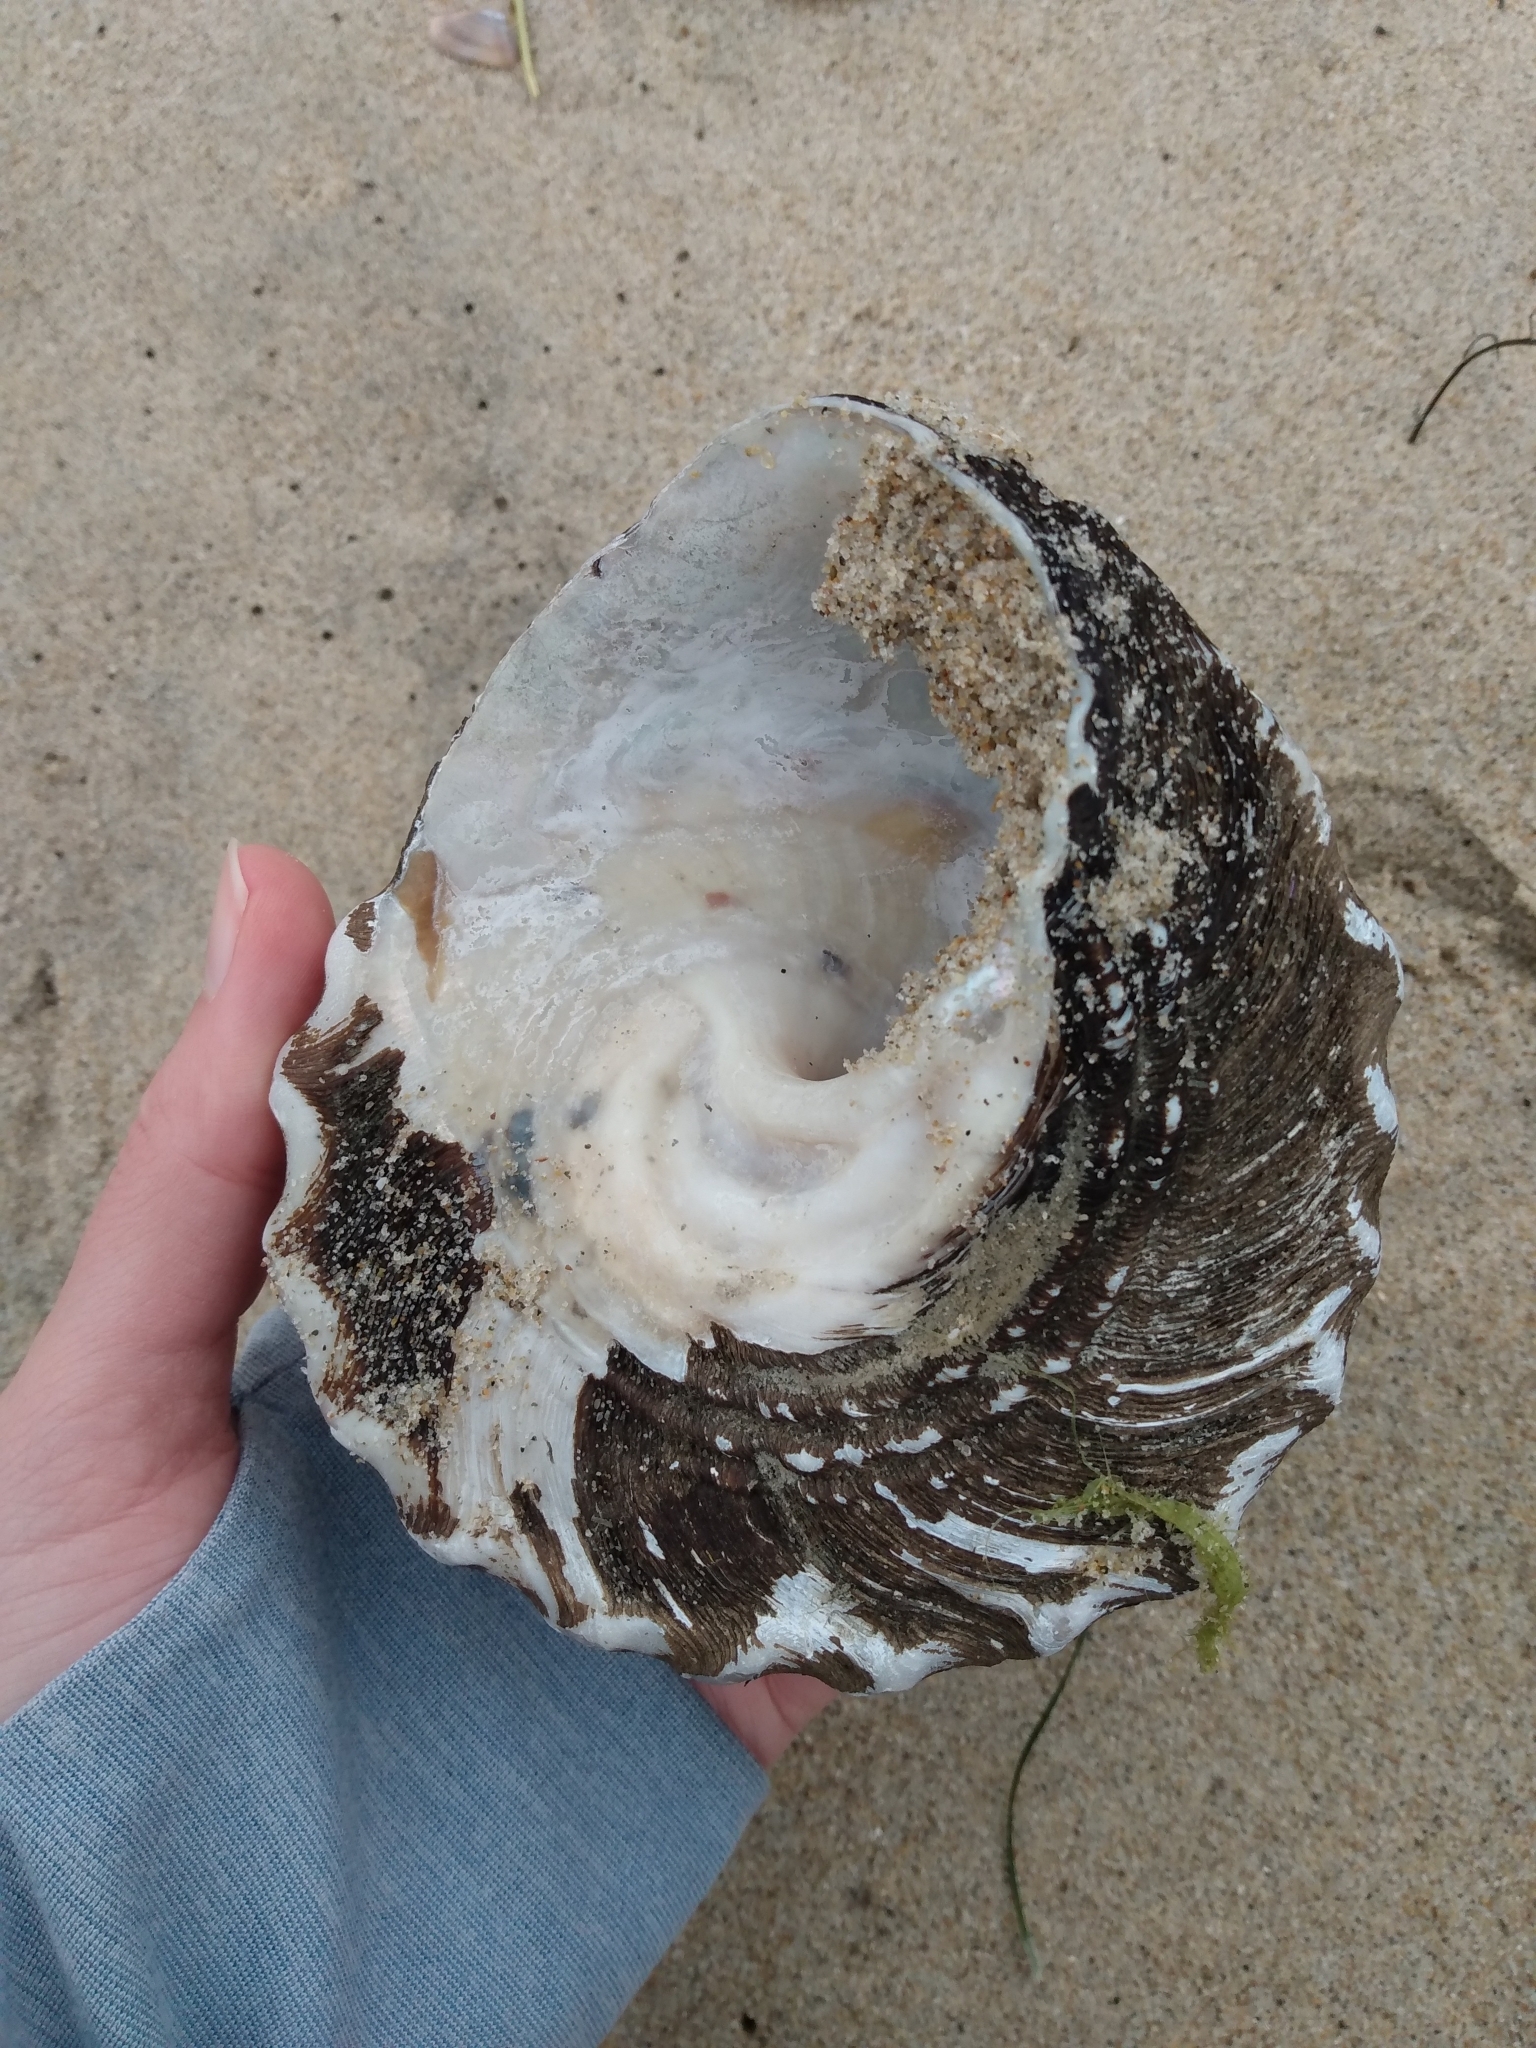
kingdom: Animalia
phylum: Mollusca
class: Gastropoda
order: Trochida
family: Turbinidae
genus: Megastraea
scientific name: Megastraea undosa
